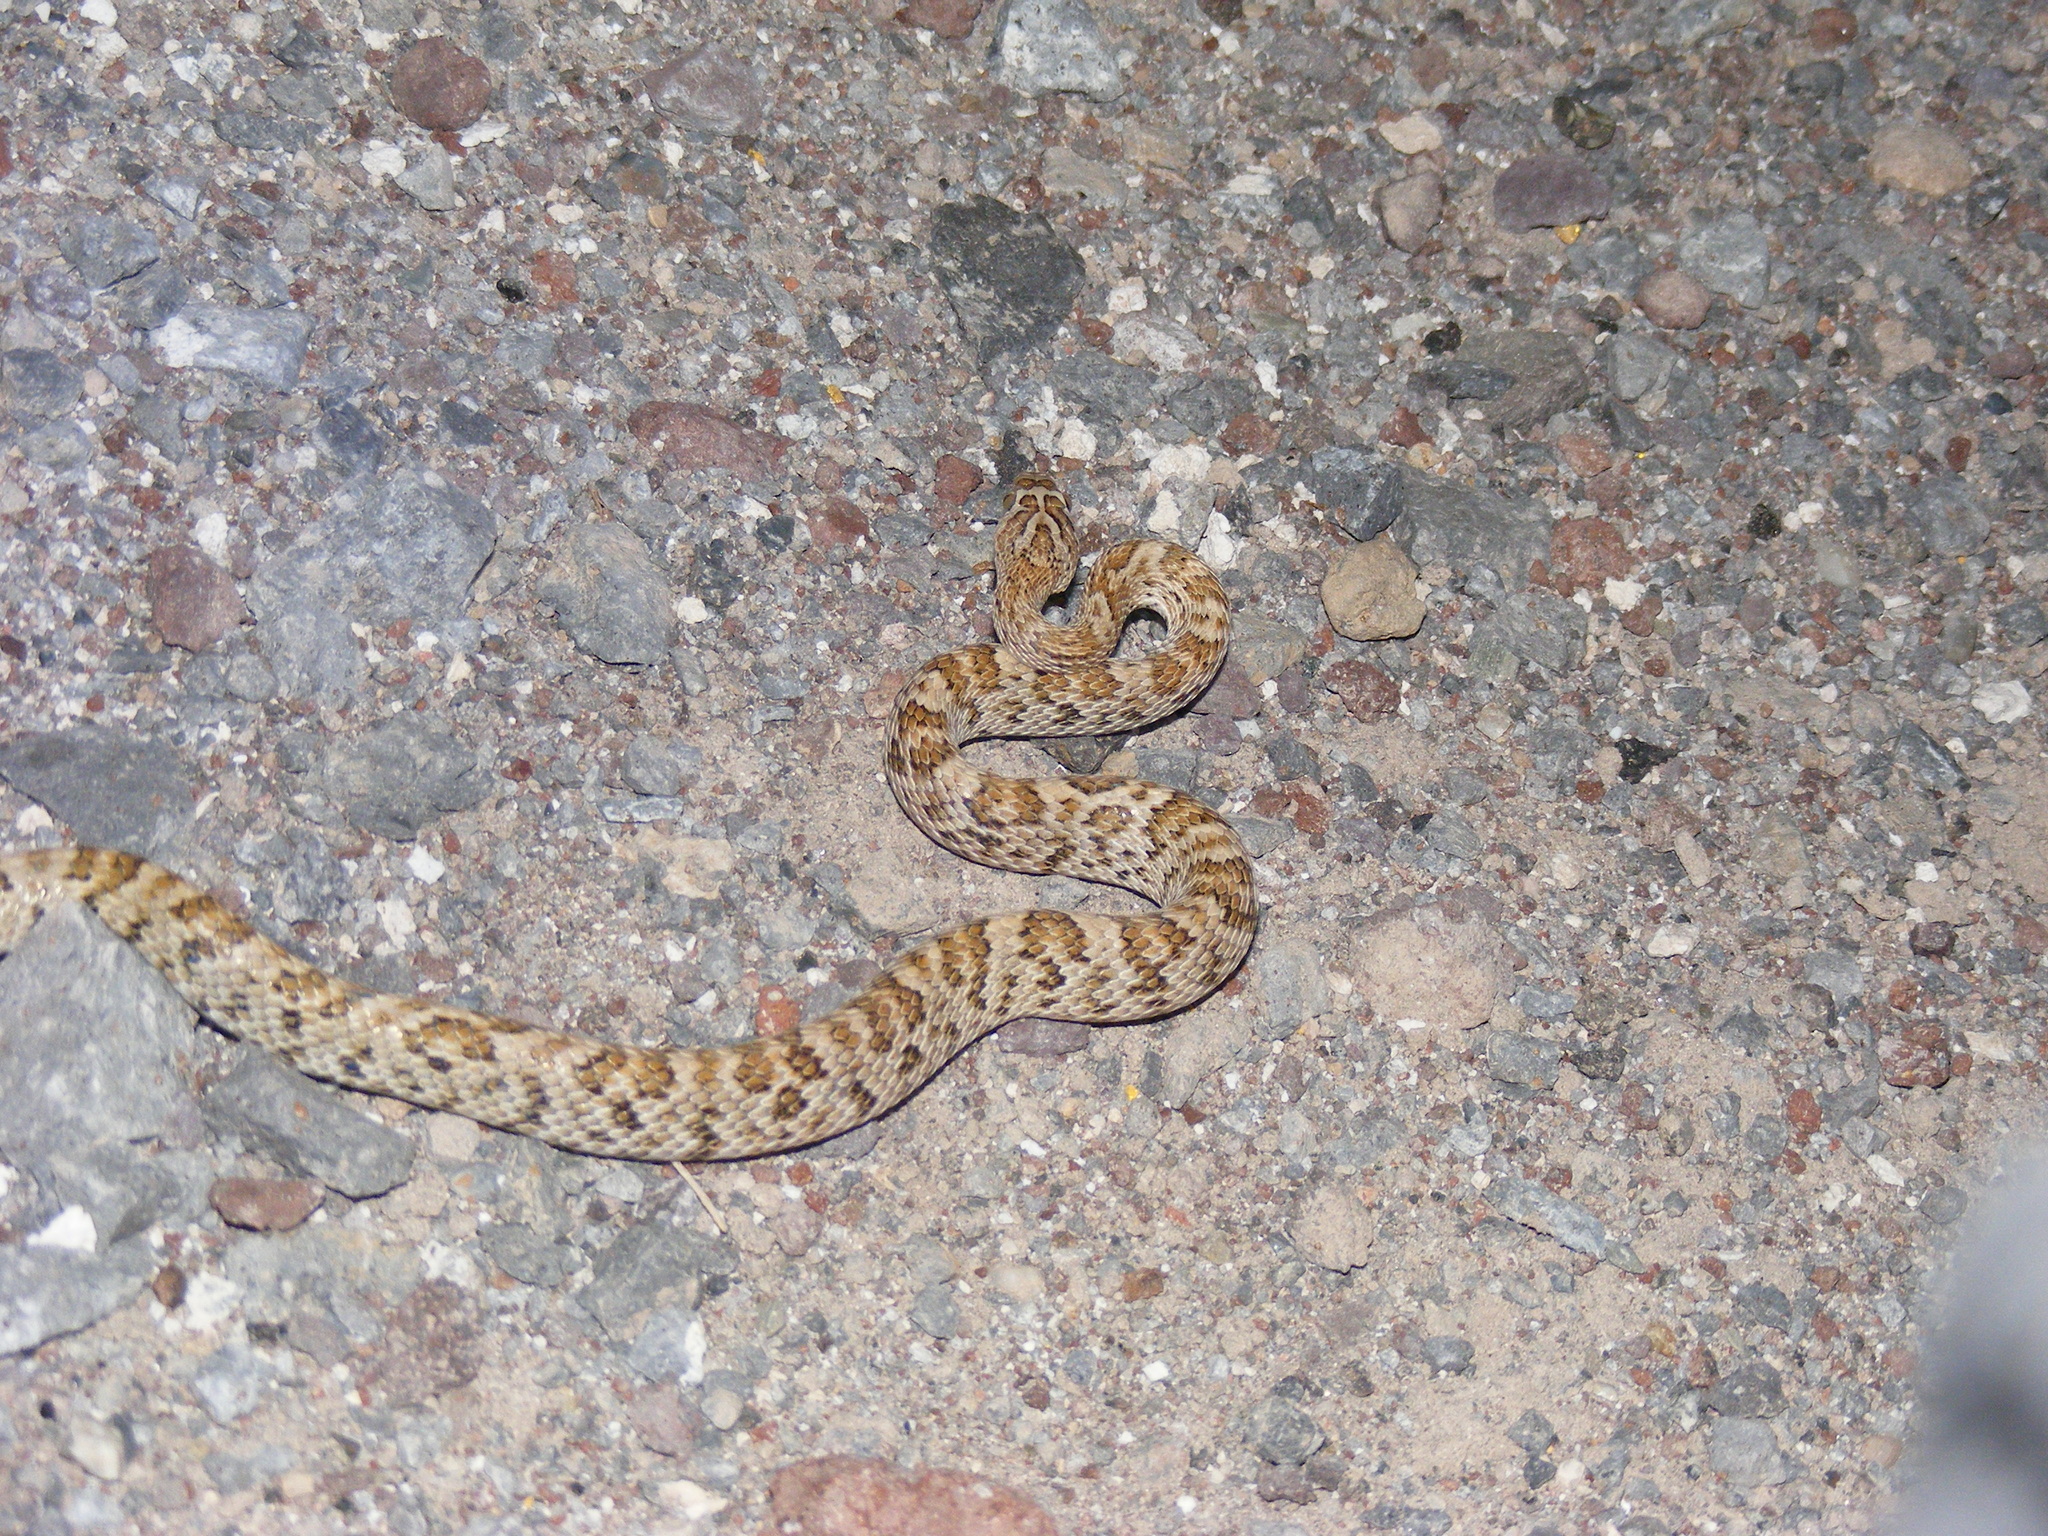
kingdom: Animalia
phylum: Chordata
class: Squamata
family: Colubridae
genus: Trimorphodon
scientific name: Trimorphodon lyrophanes
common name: Baja california lyre snake
